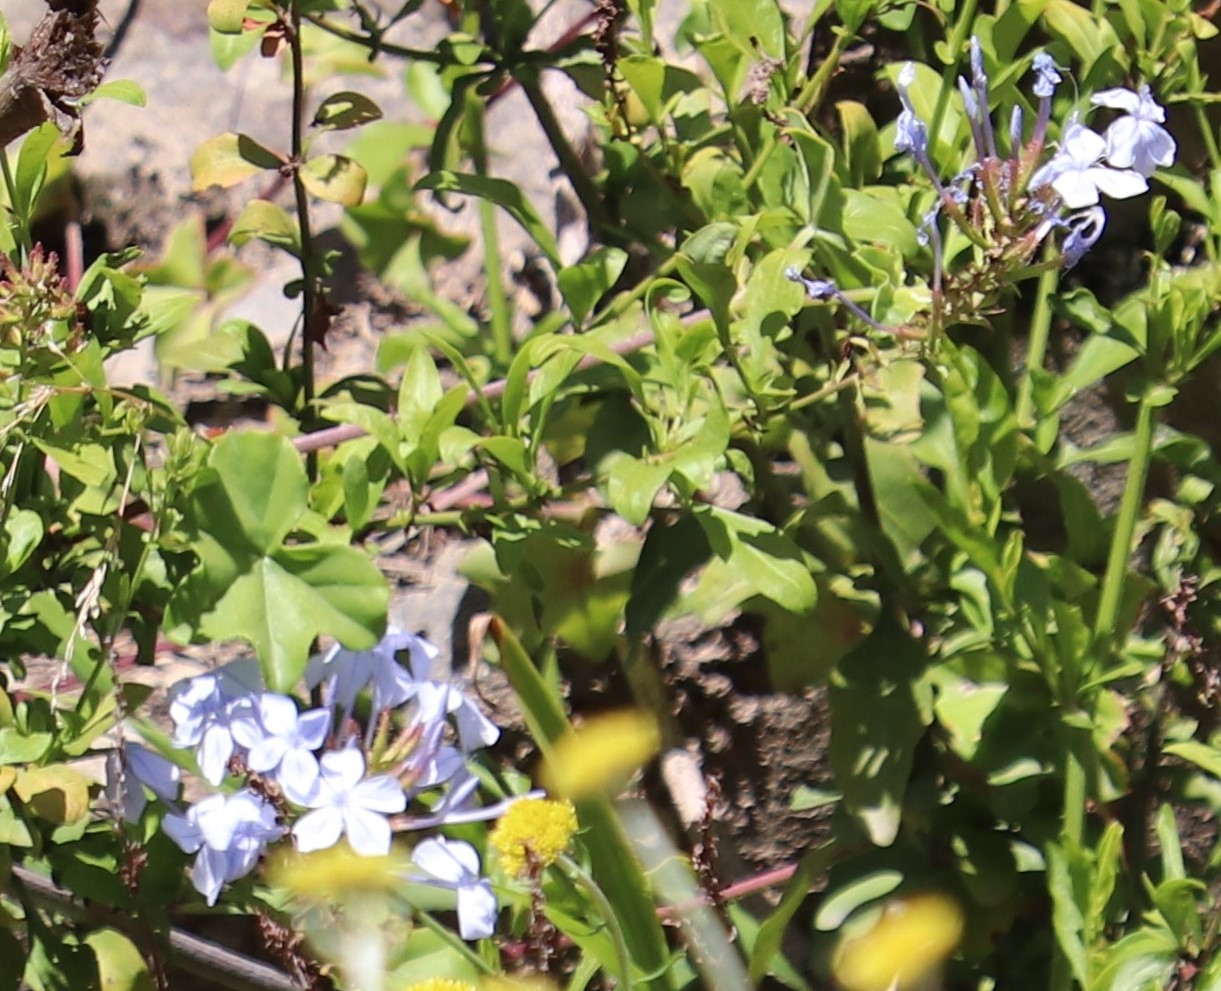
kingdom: Plantae
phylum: Tracheophyta
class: Magnoliopsida
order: Caryophyllales
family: Plumbaginaceae
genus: Plumbago
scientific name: Plumbago auriculata
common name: Cape leadwort
